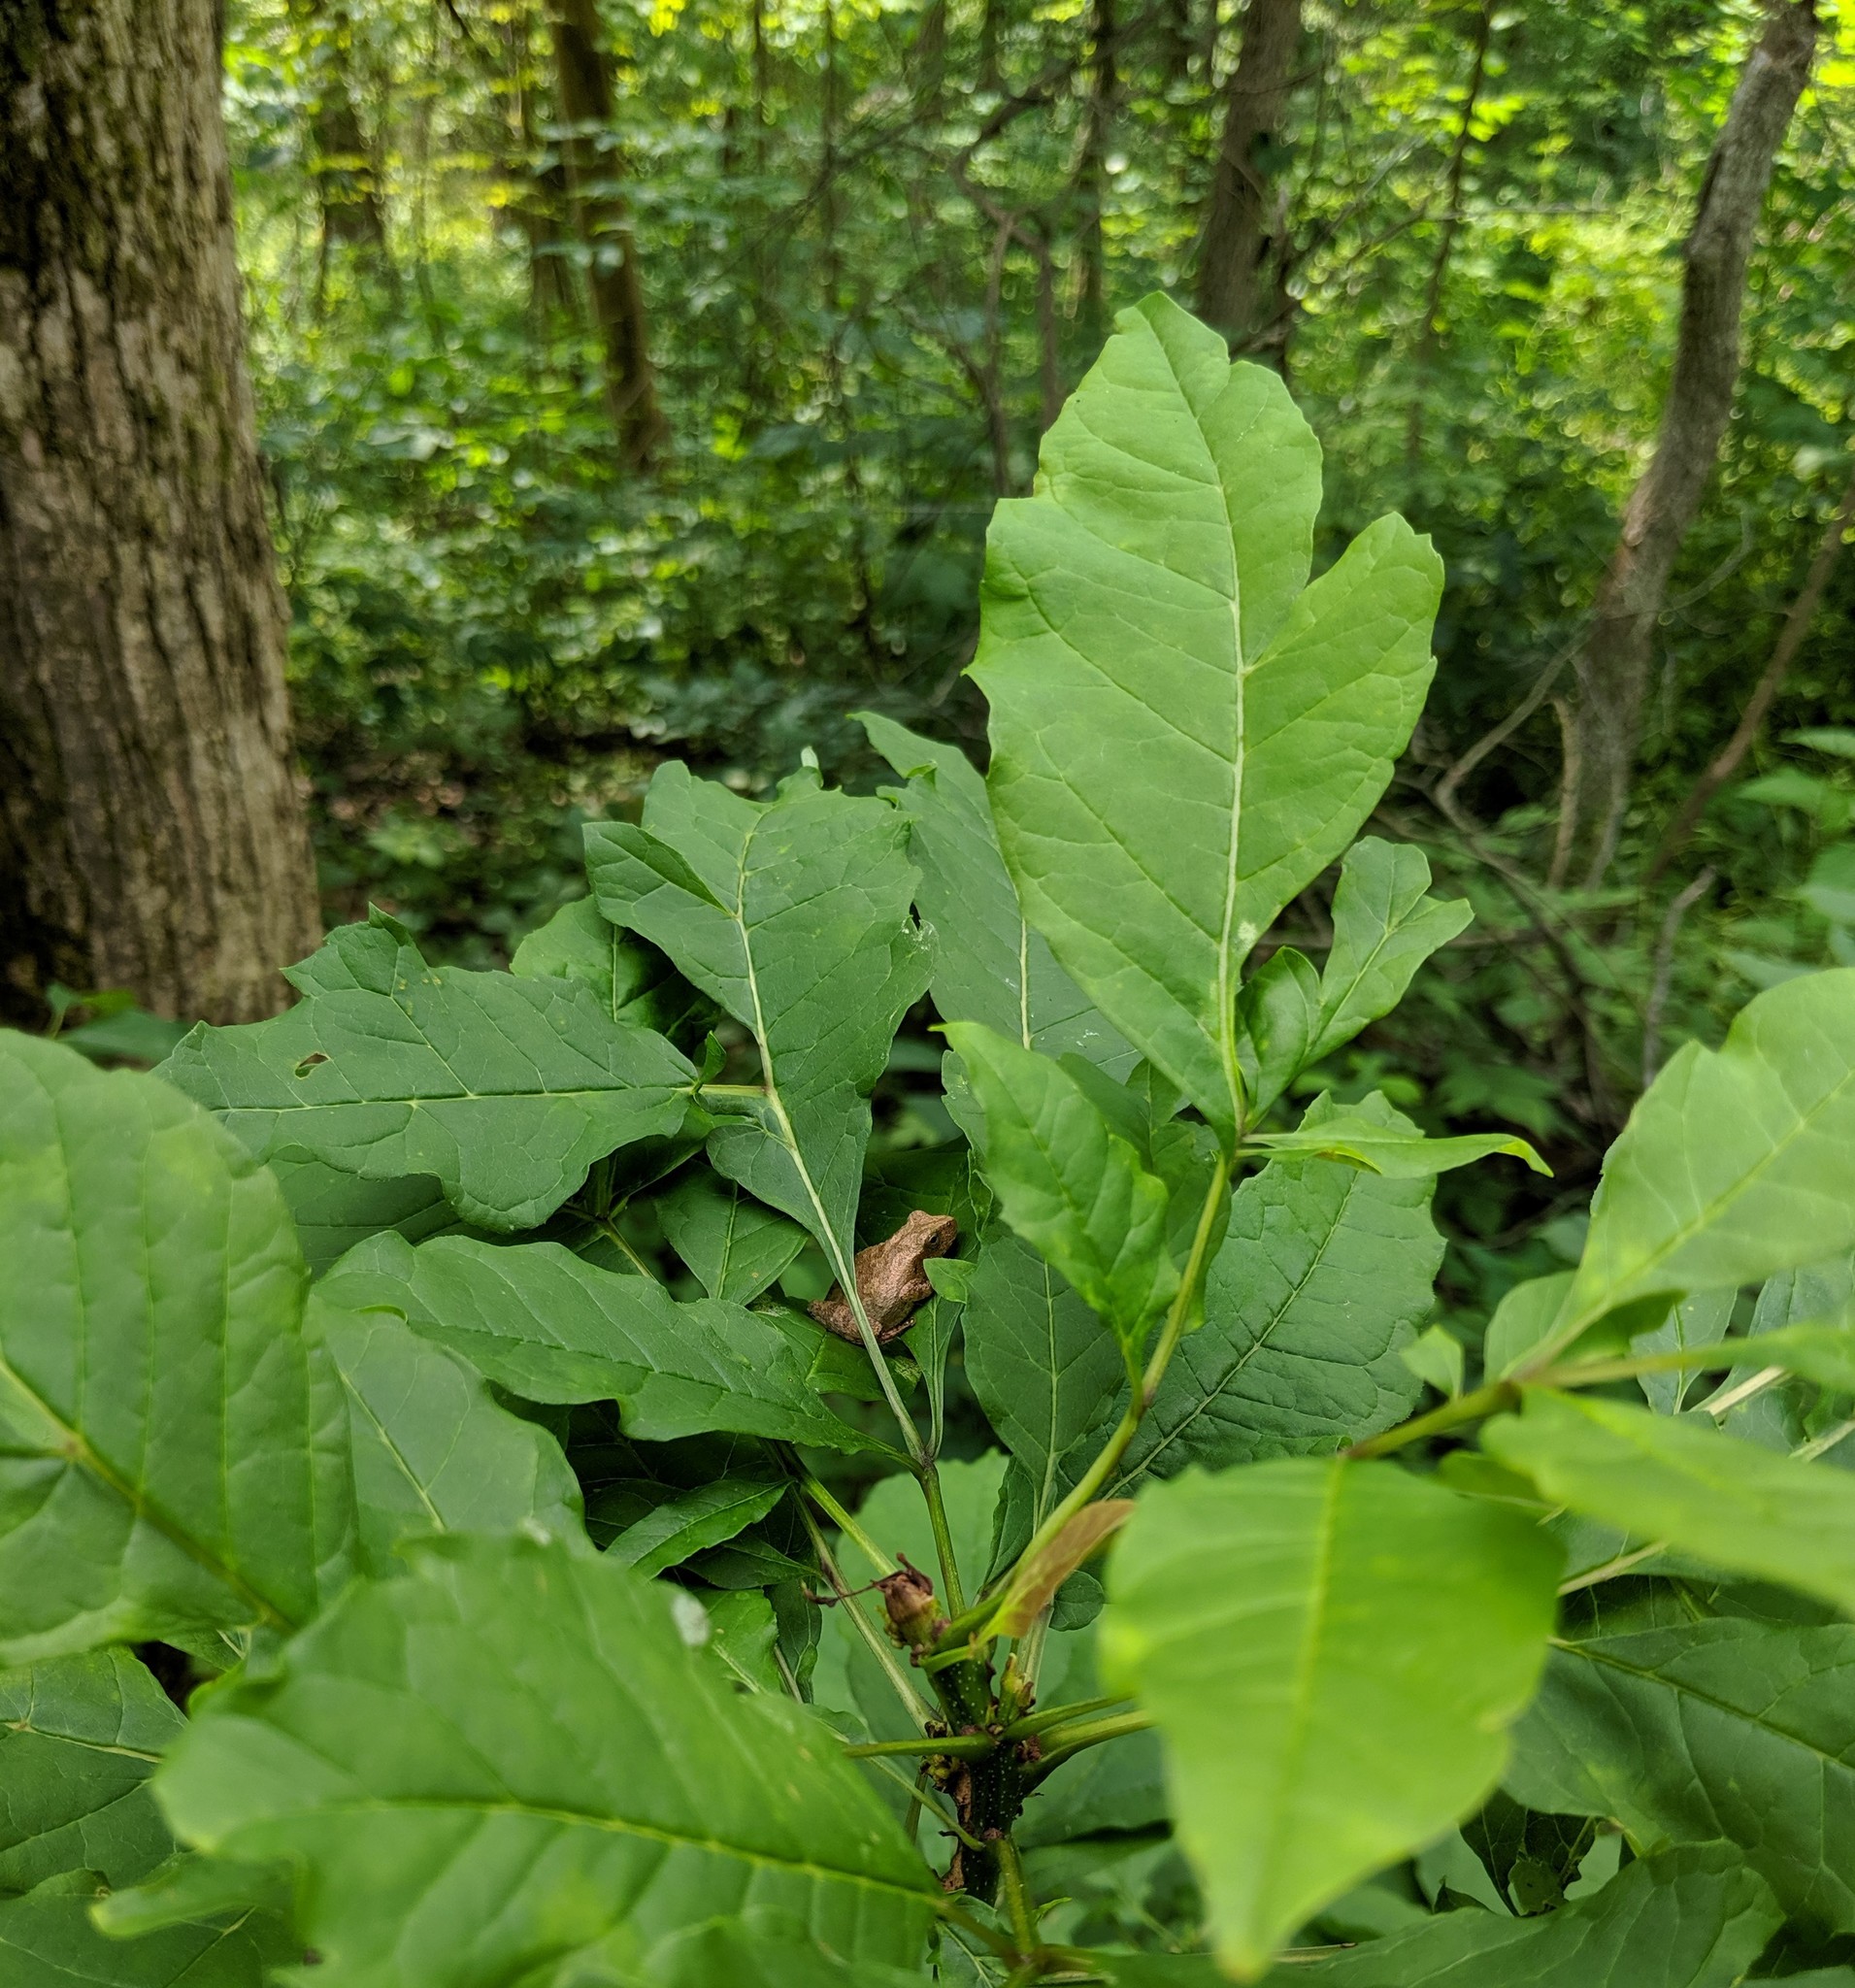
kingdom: Animalia
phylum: Chordata
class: Amphibia
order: Anura
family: Hylidae
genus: Pseudacris
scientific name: Pseudacris crucifer
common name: Spring peeper
